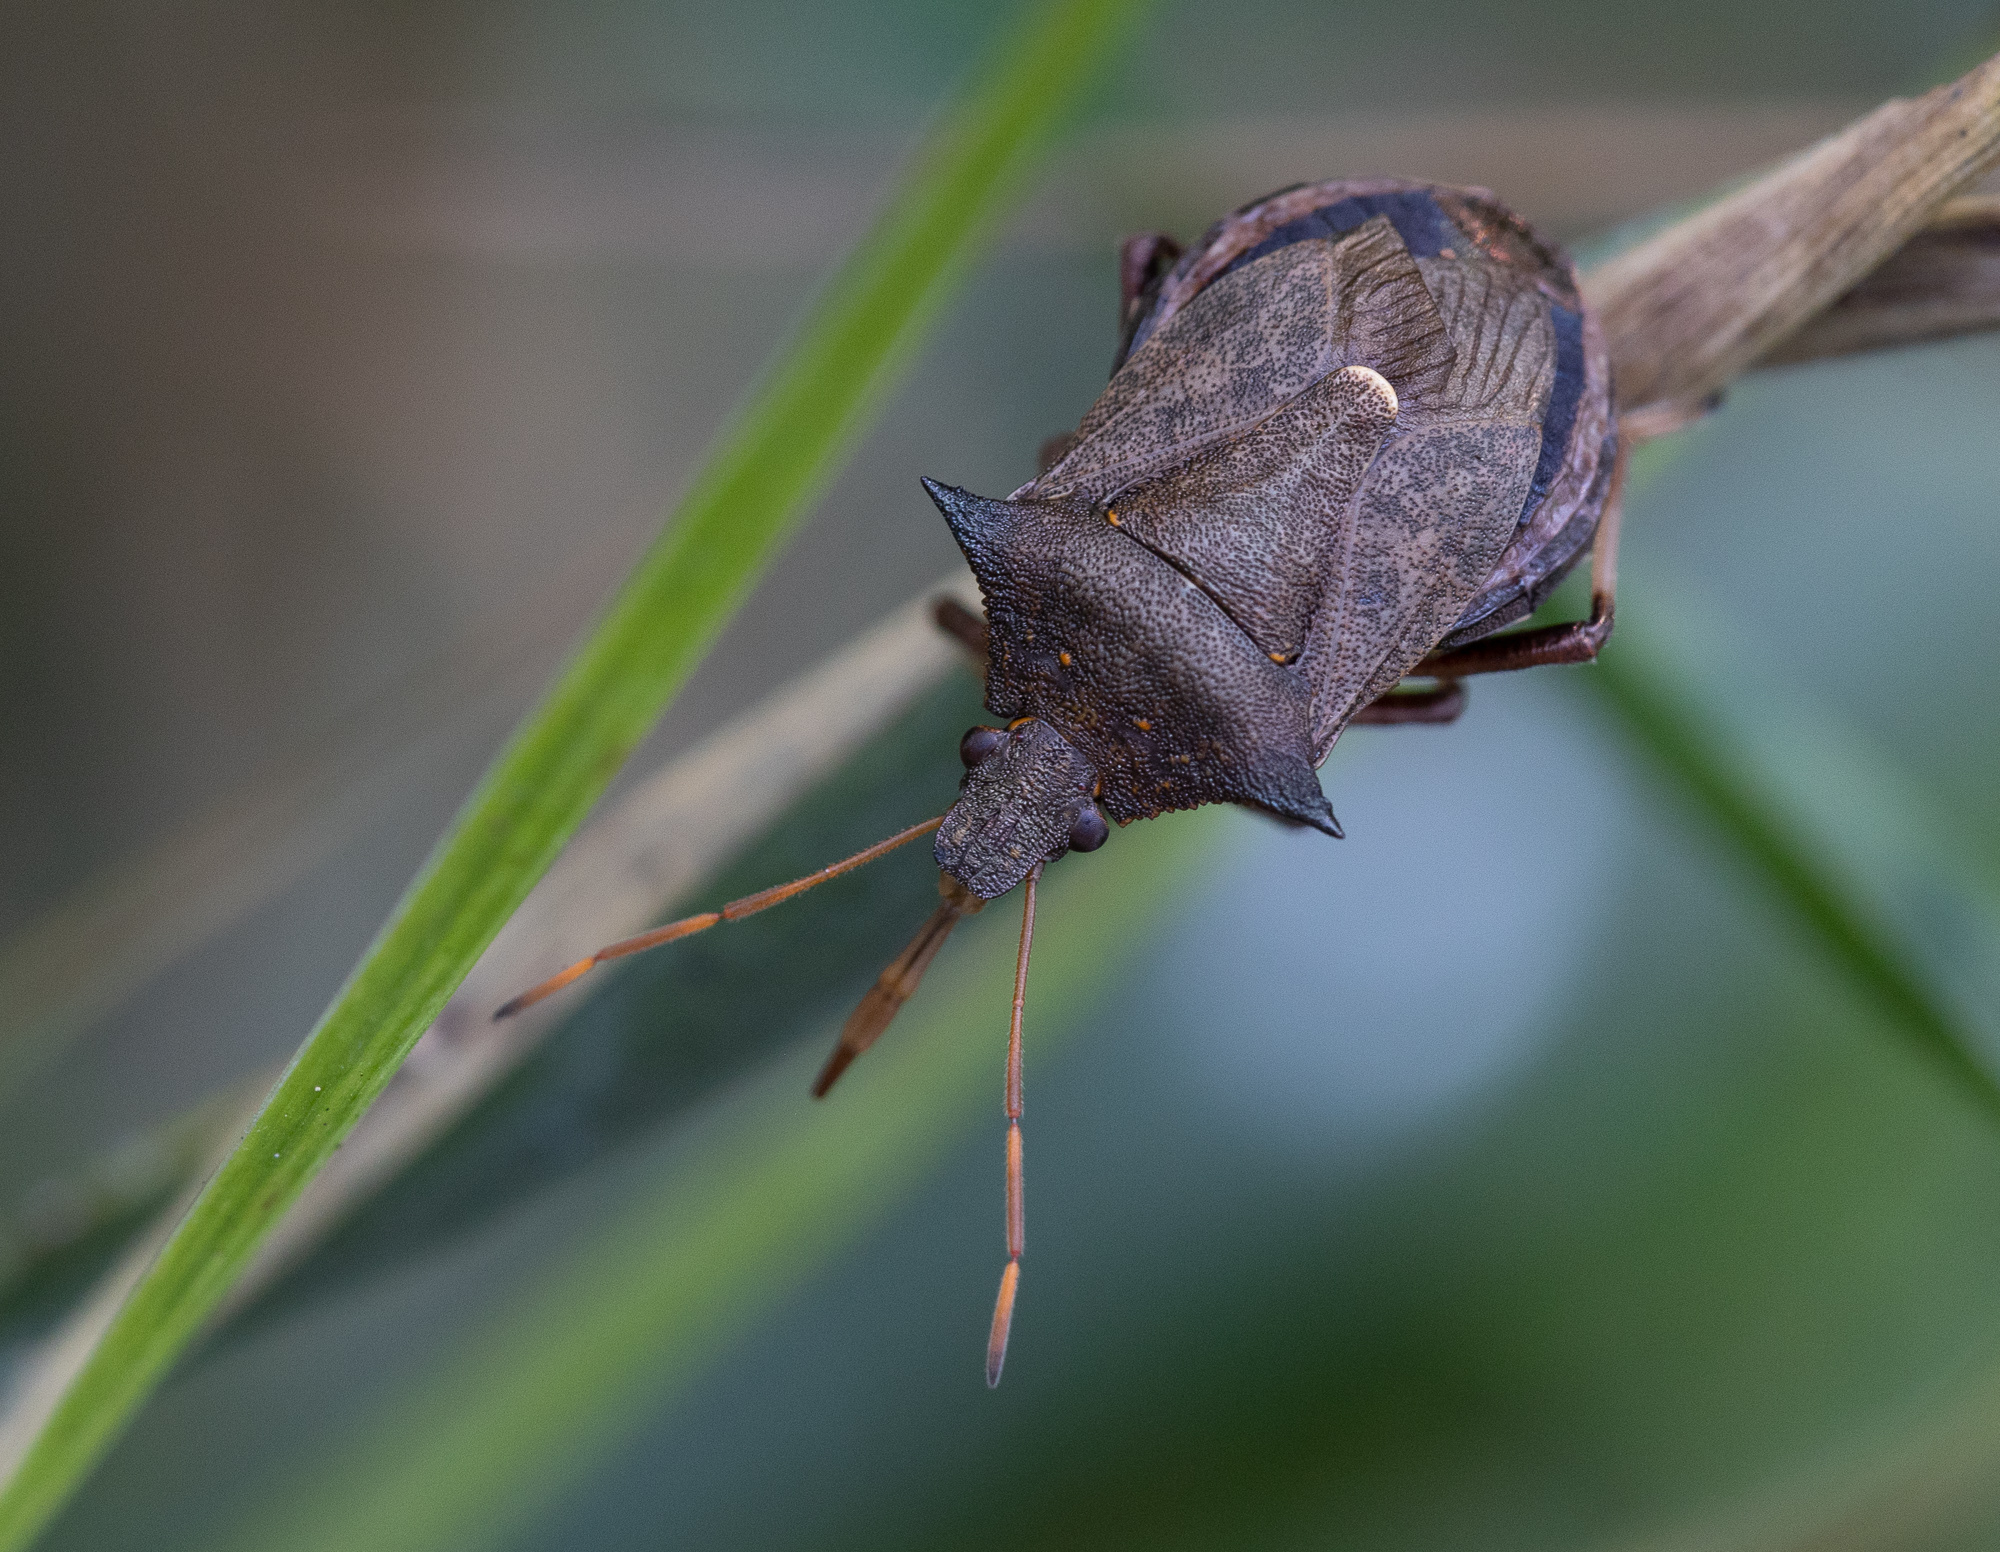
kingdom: Animalia
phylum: Arthropoda
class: Insecta
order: Hemiptera
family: Pentatomidae
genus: Picromerus
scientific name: Picromerus bidens
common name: Spiked shieldbug
